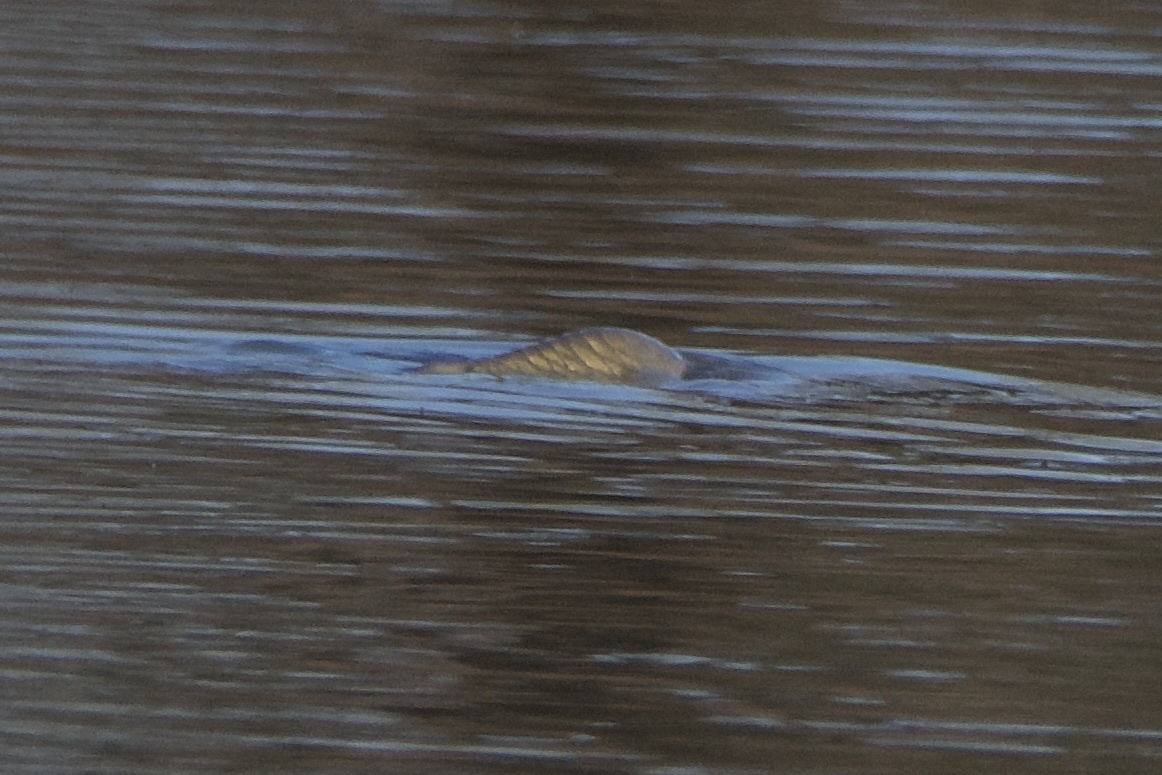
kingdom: Animalia
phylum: Chordata
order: Cypriniformes
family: Cyprinidae
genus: Cyprinus
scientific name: Cyprinus carpio
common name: Common carp
